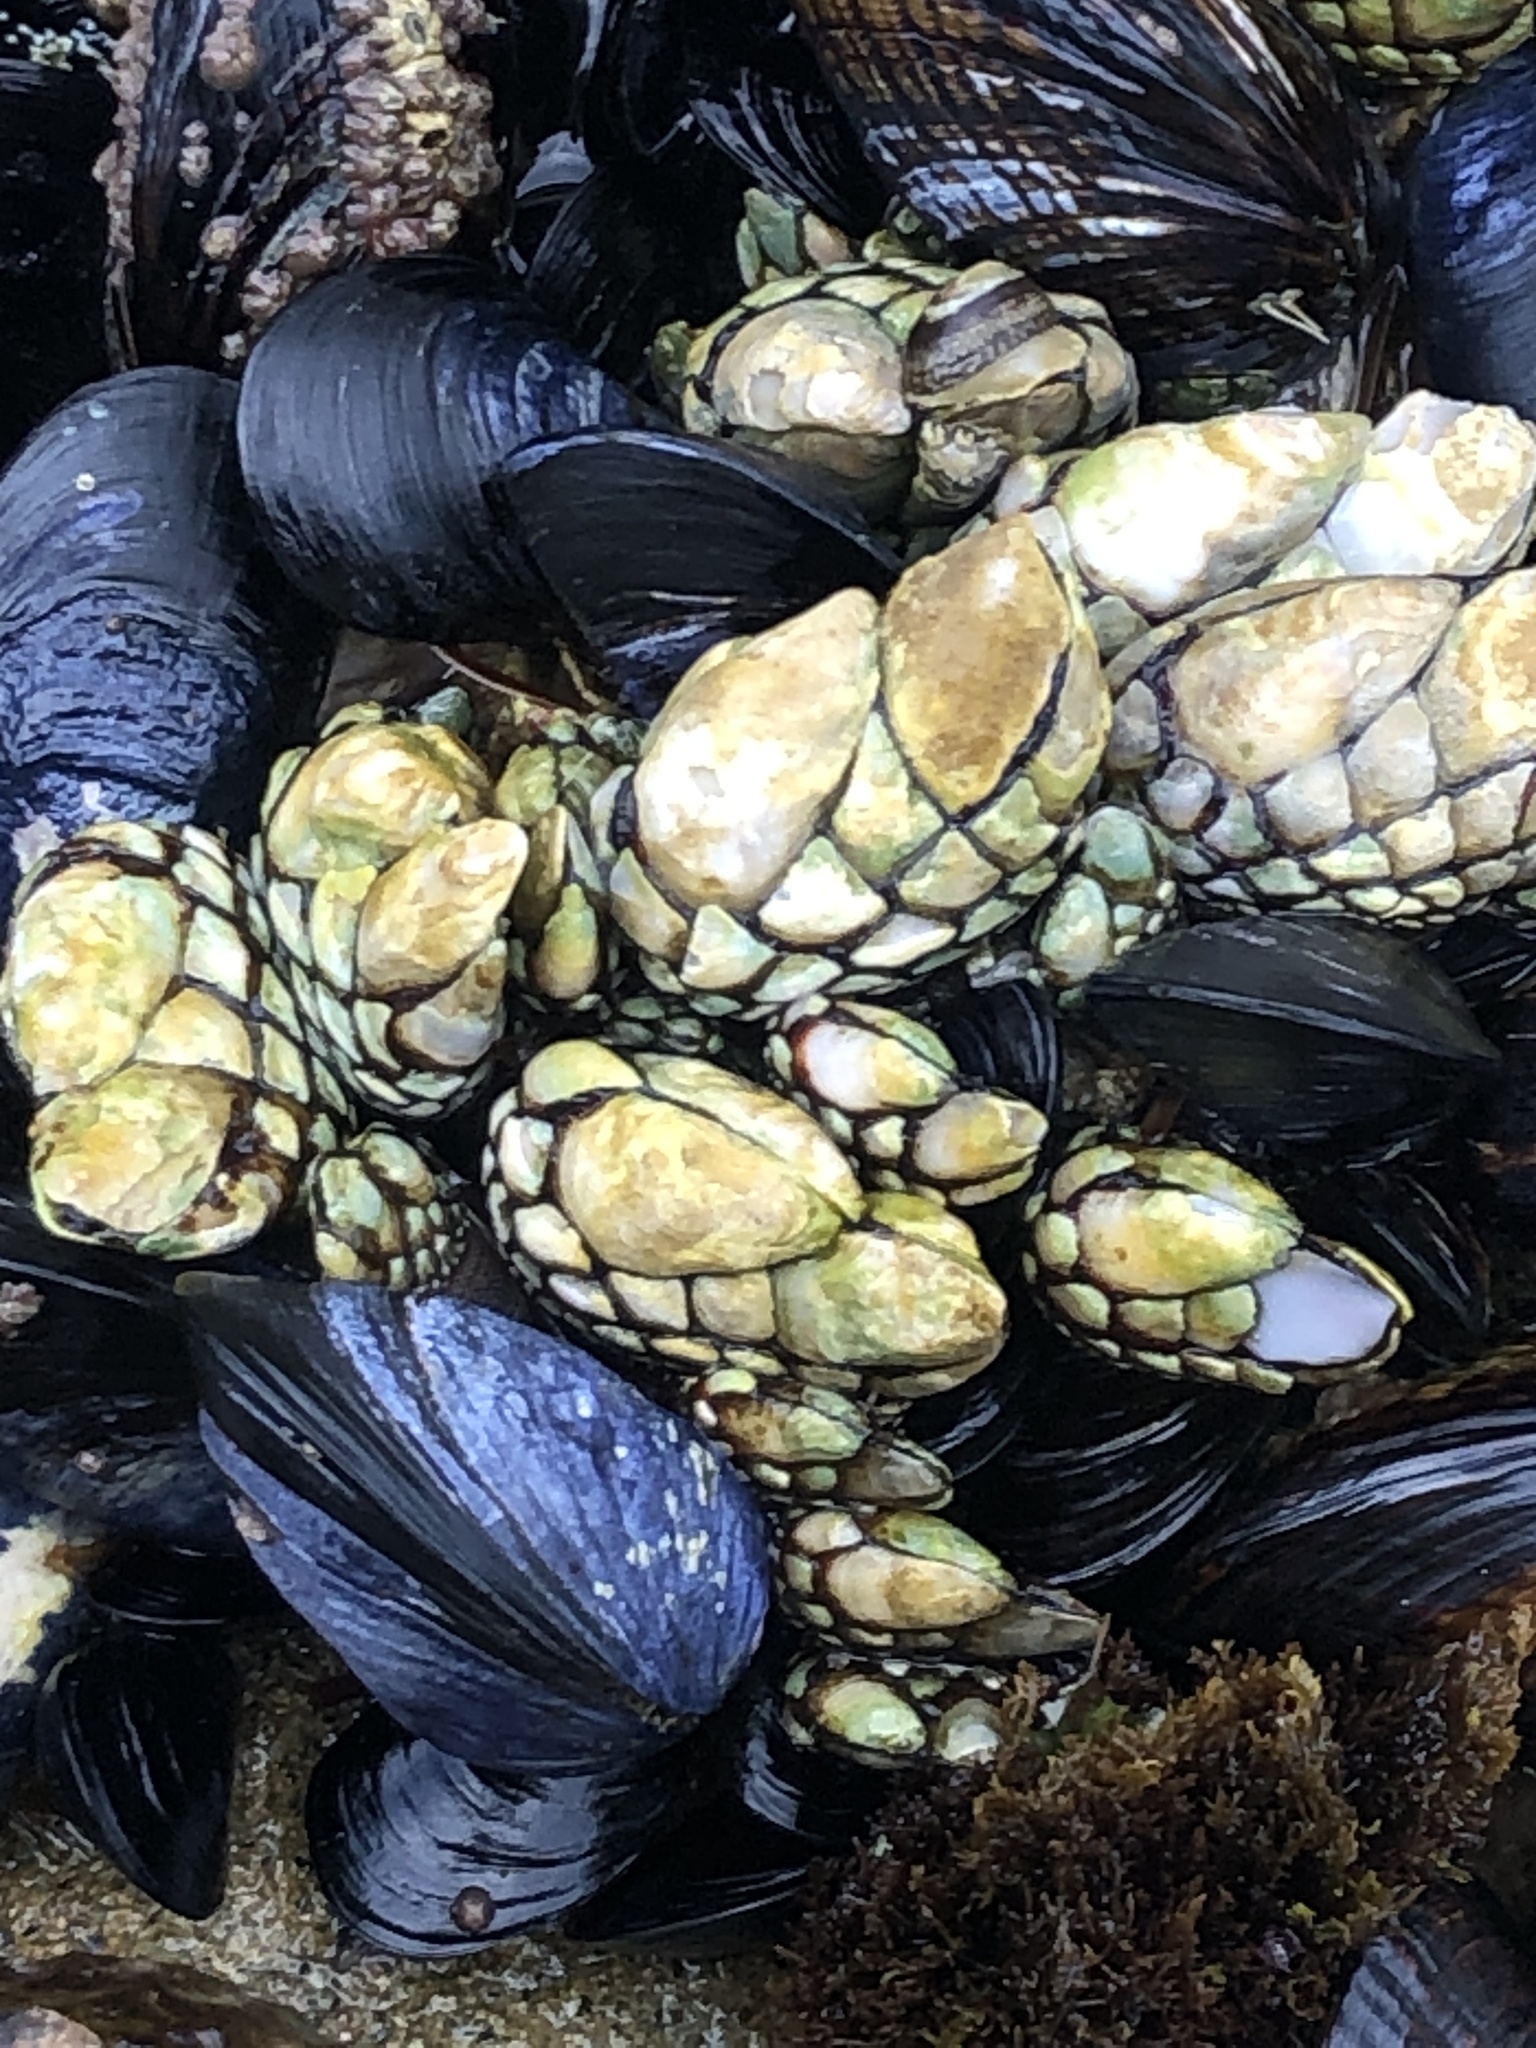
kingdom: Animalia
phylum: Arthropoda
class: Maxillopoda
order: Pedunculata
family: Pollicipedidae
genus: Pollicipes
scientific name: Pollicipes polymerus
